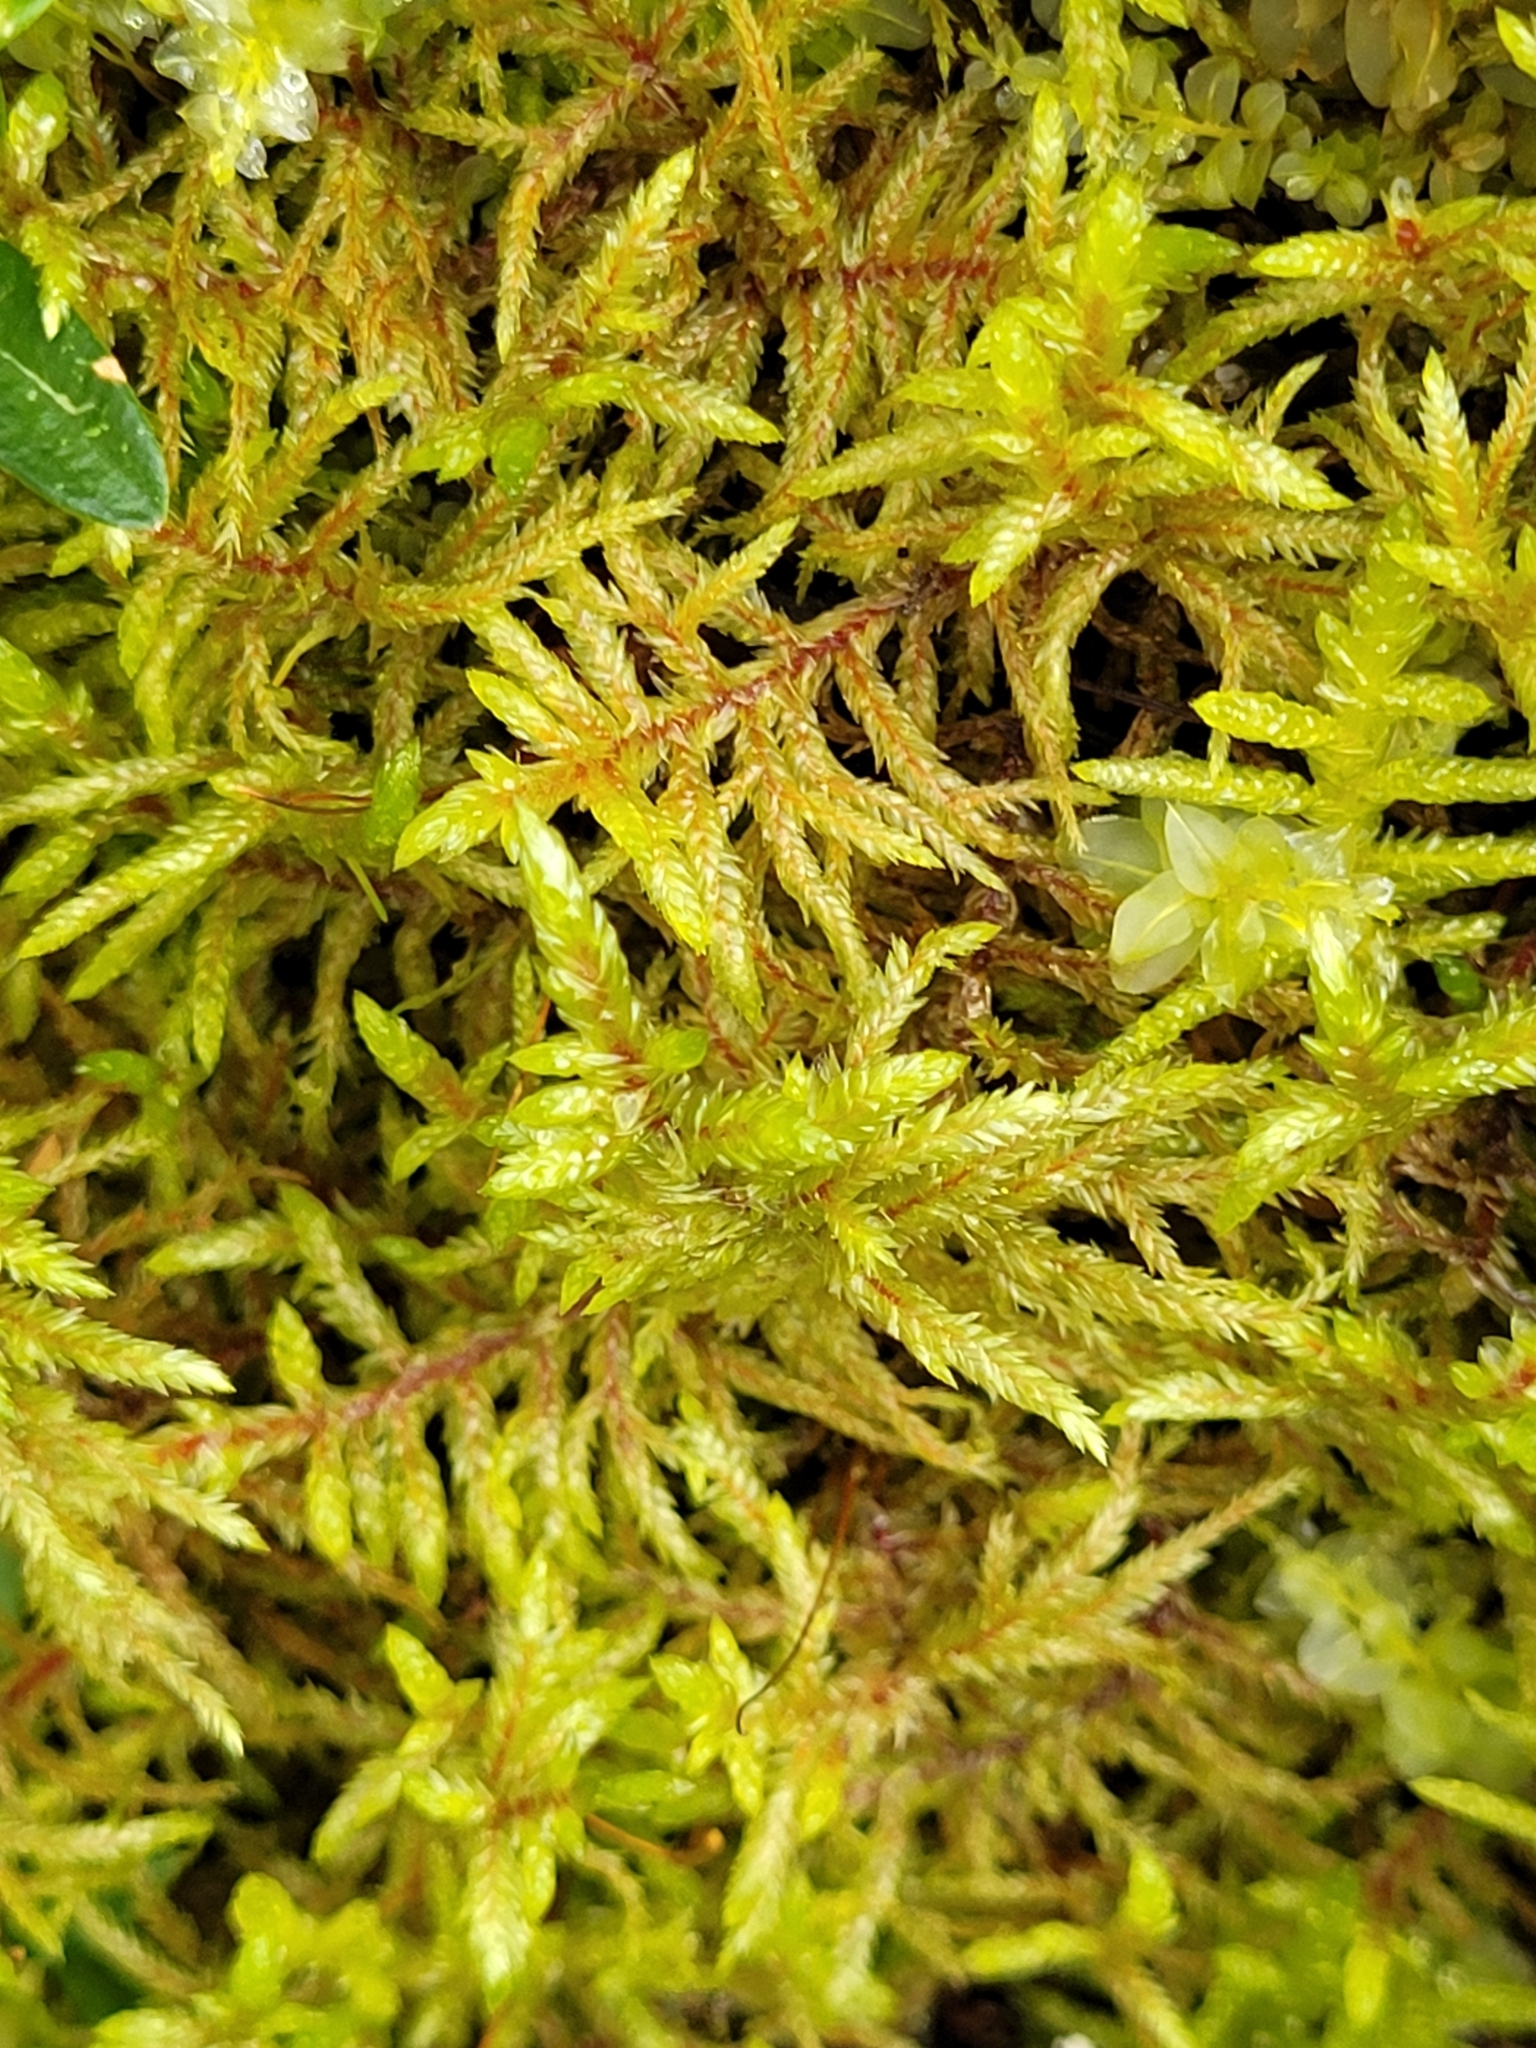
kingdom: Plantae
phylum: Bryophyta
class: Bryopsida
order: Hypnales
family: Hylocomiaceae
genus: Pleurozium
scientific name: Pleurozium schreberi
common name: Red-stemmed feather moss
